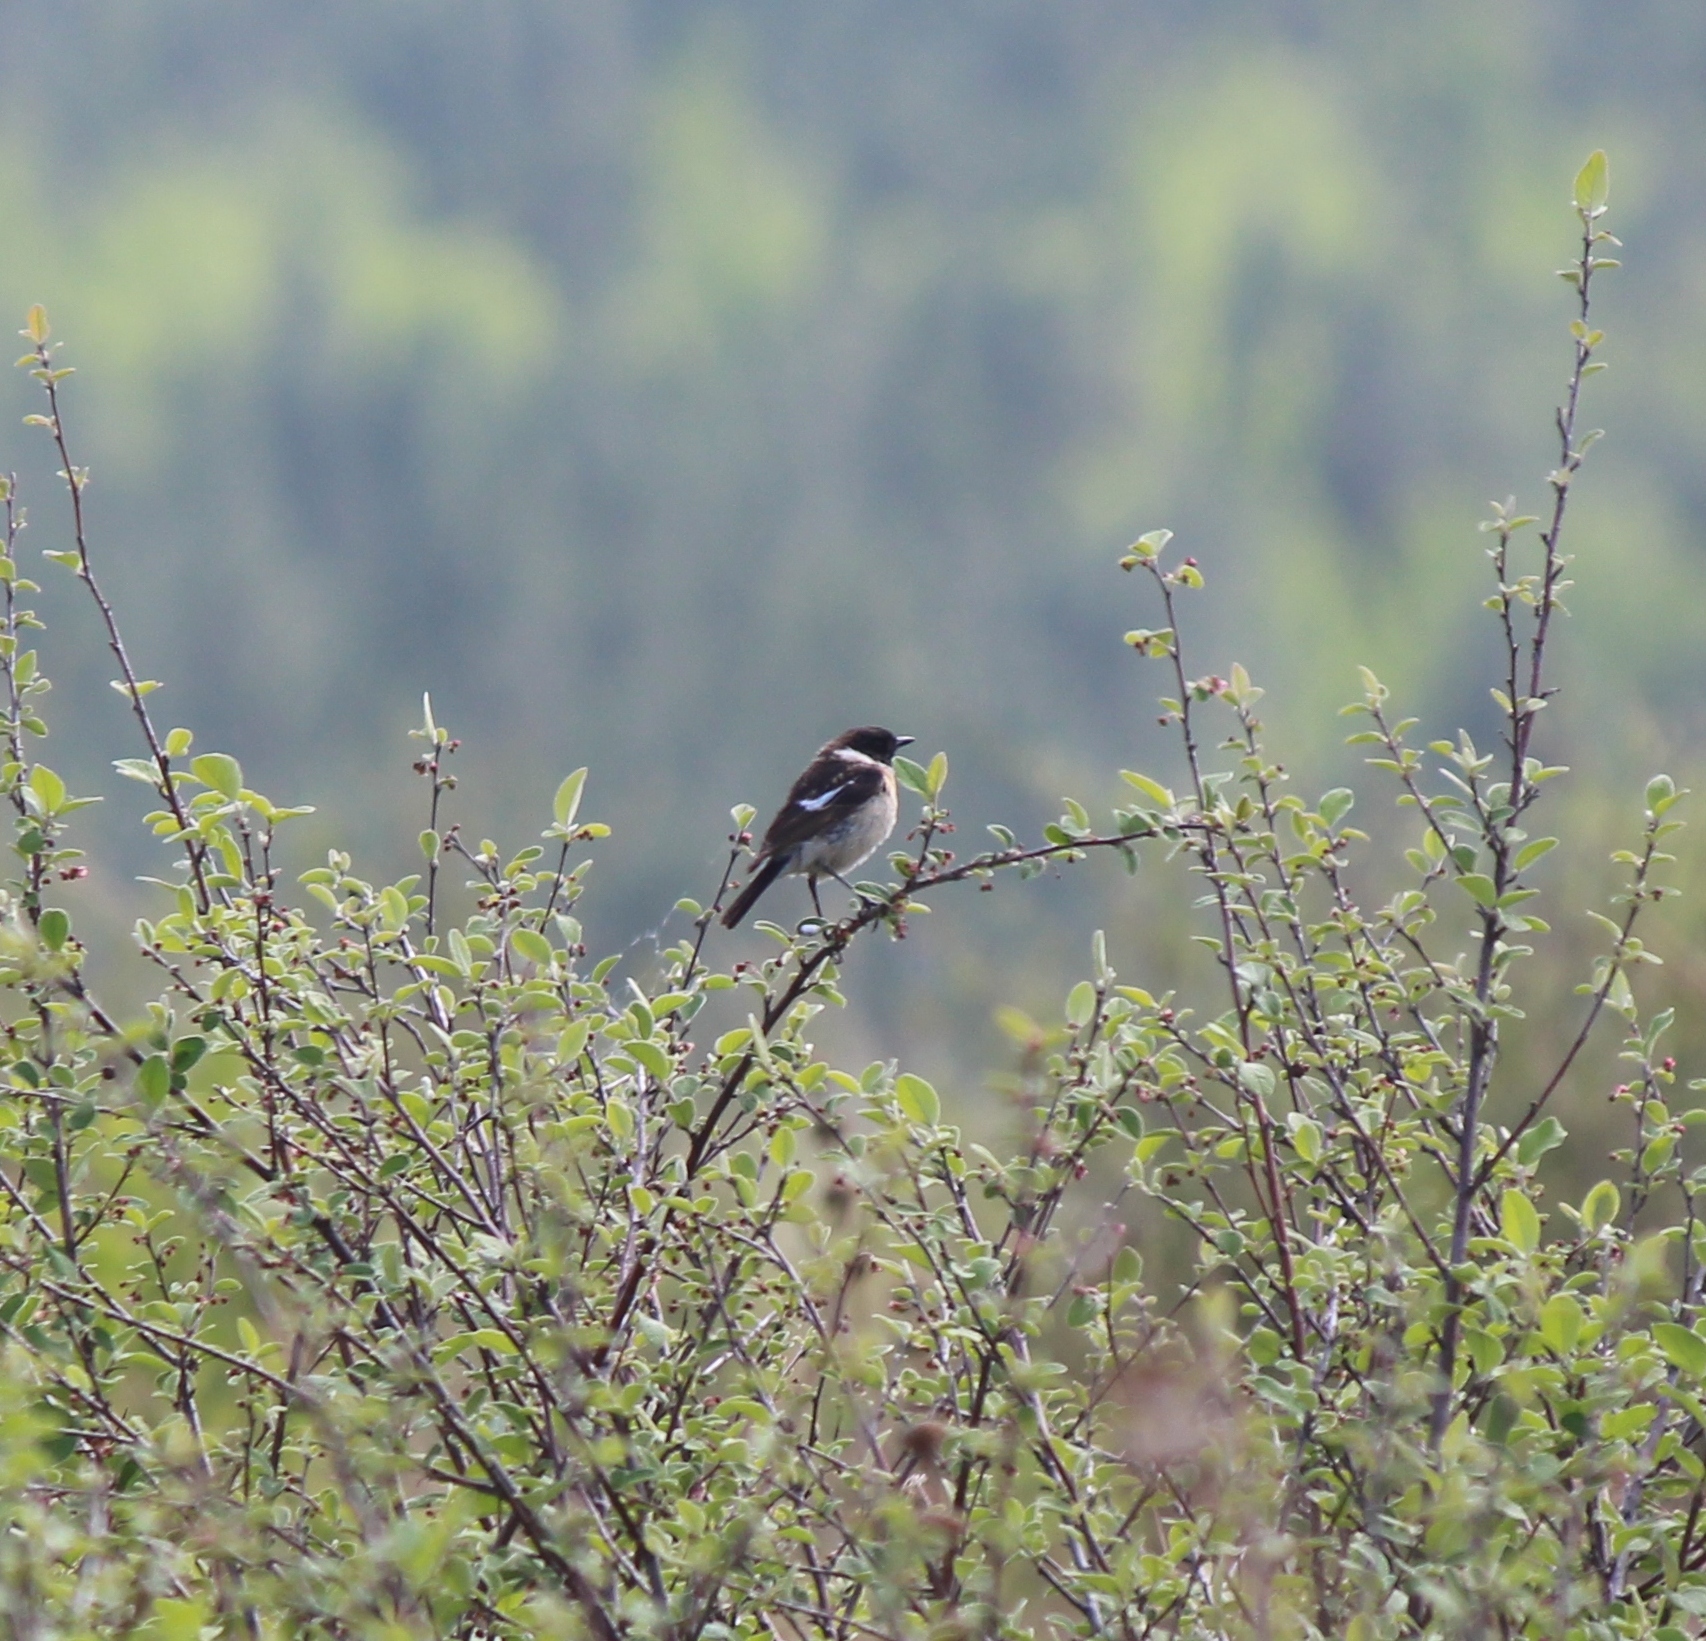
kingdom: Animalia
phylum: Chordata
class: Aves
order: Passeriformes
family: Muscicapidae
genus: Saxicola
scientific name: Saxicola maurus
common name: Siberian stonechat
